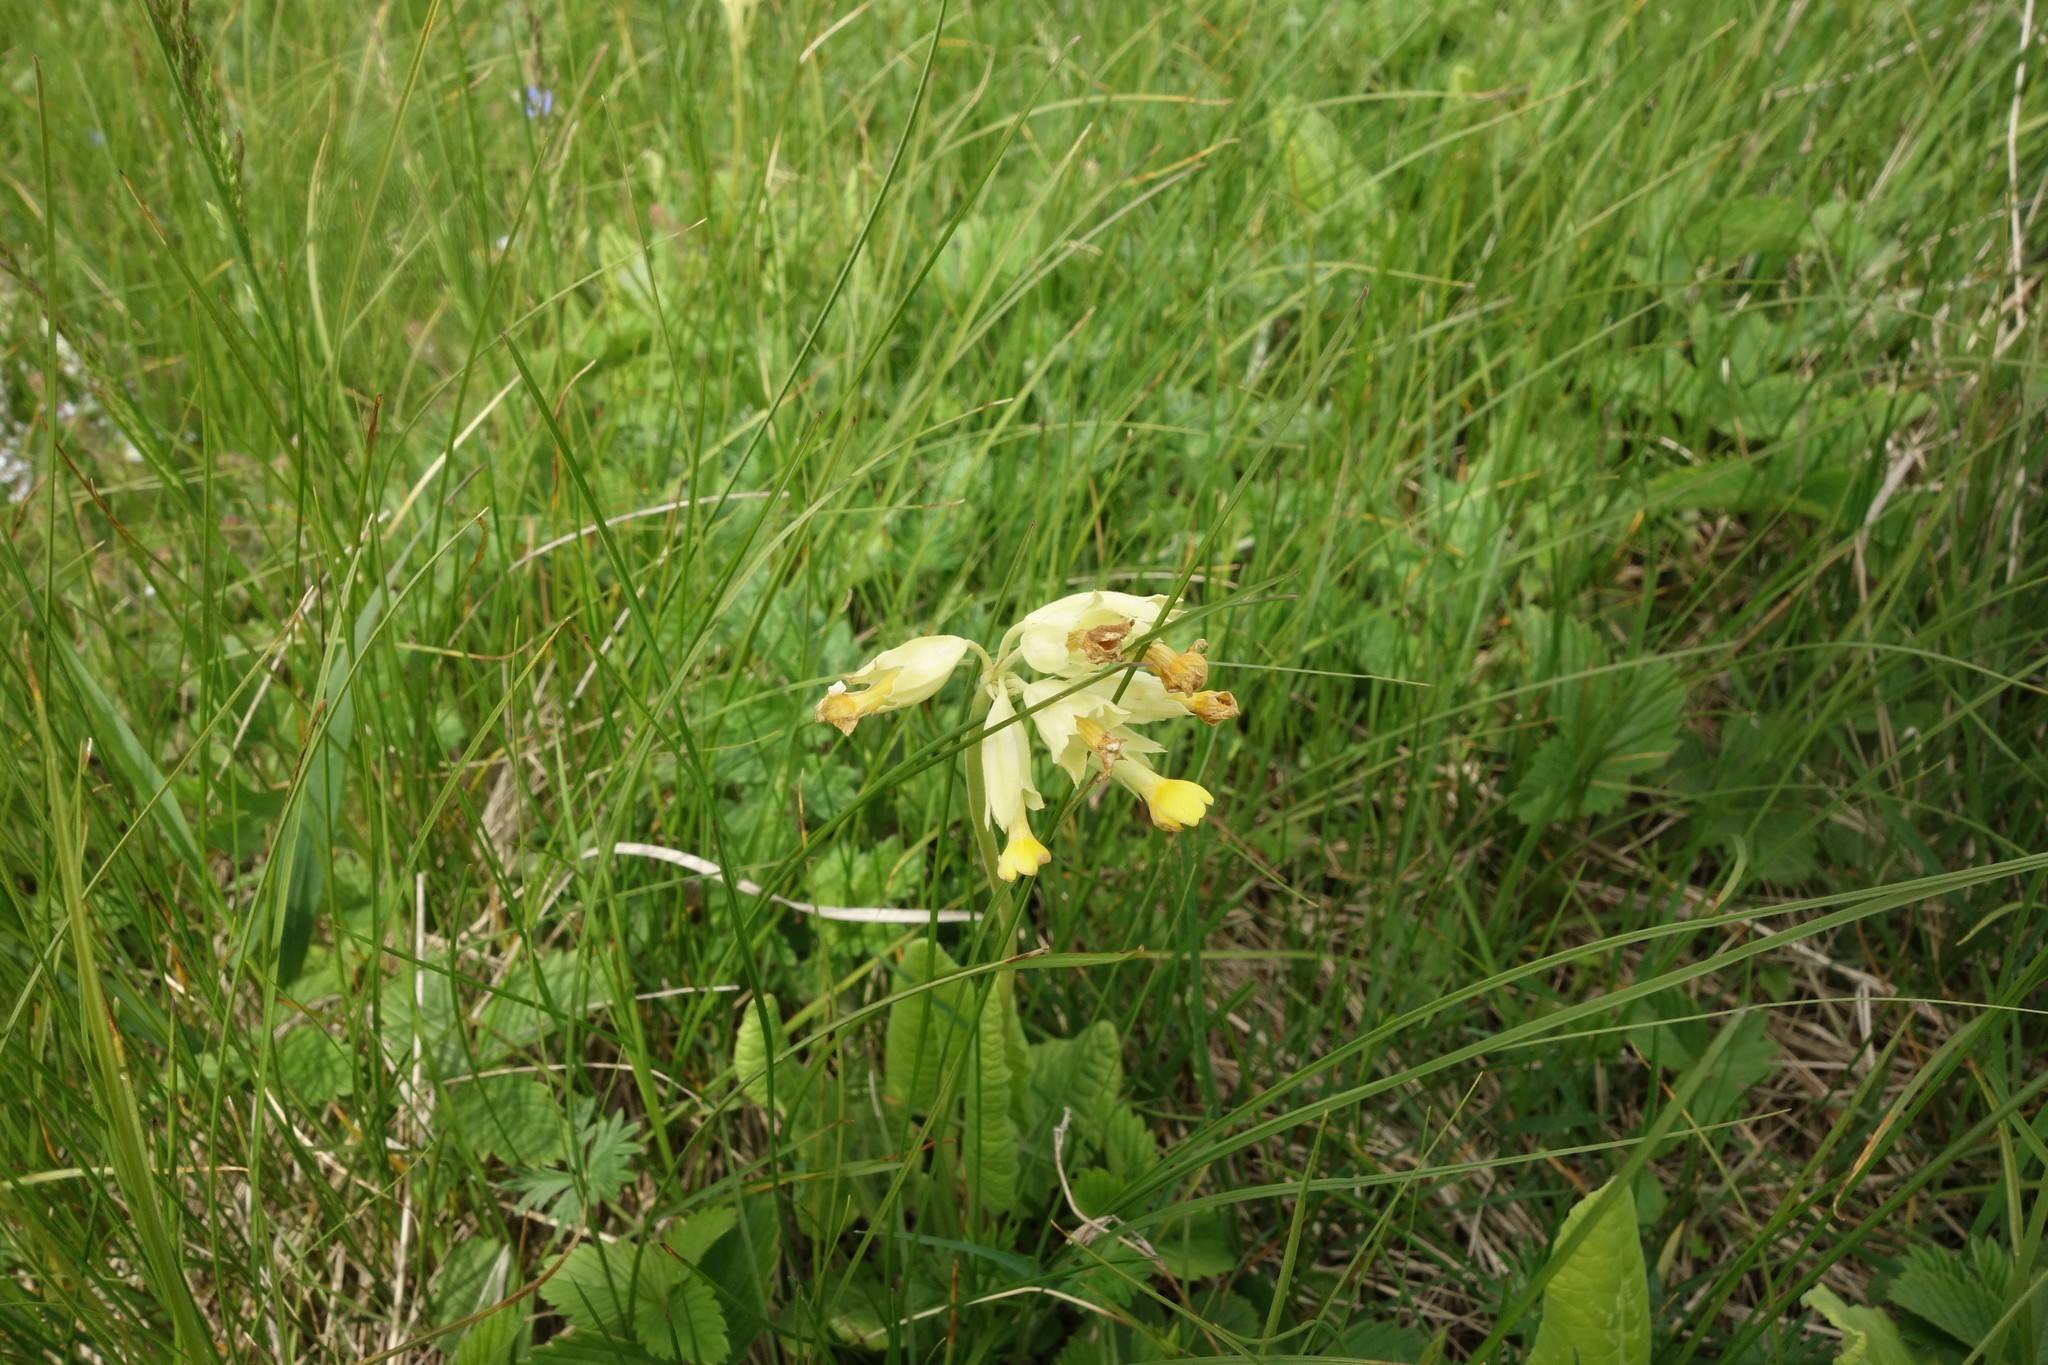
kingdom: Plantae
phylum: Tracheophyta
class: Magnoliopsida
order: Ericales
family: Primulaceae
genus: Primula
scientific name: Primula veris
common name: Cowslip
